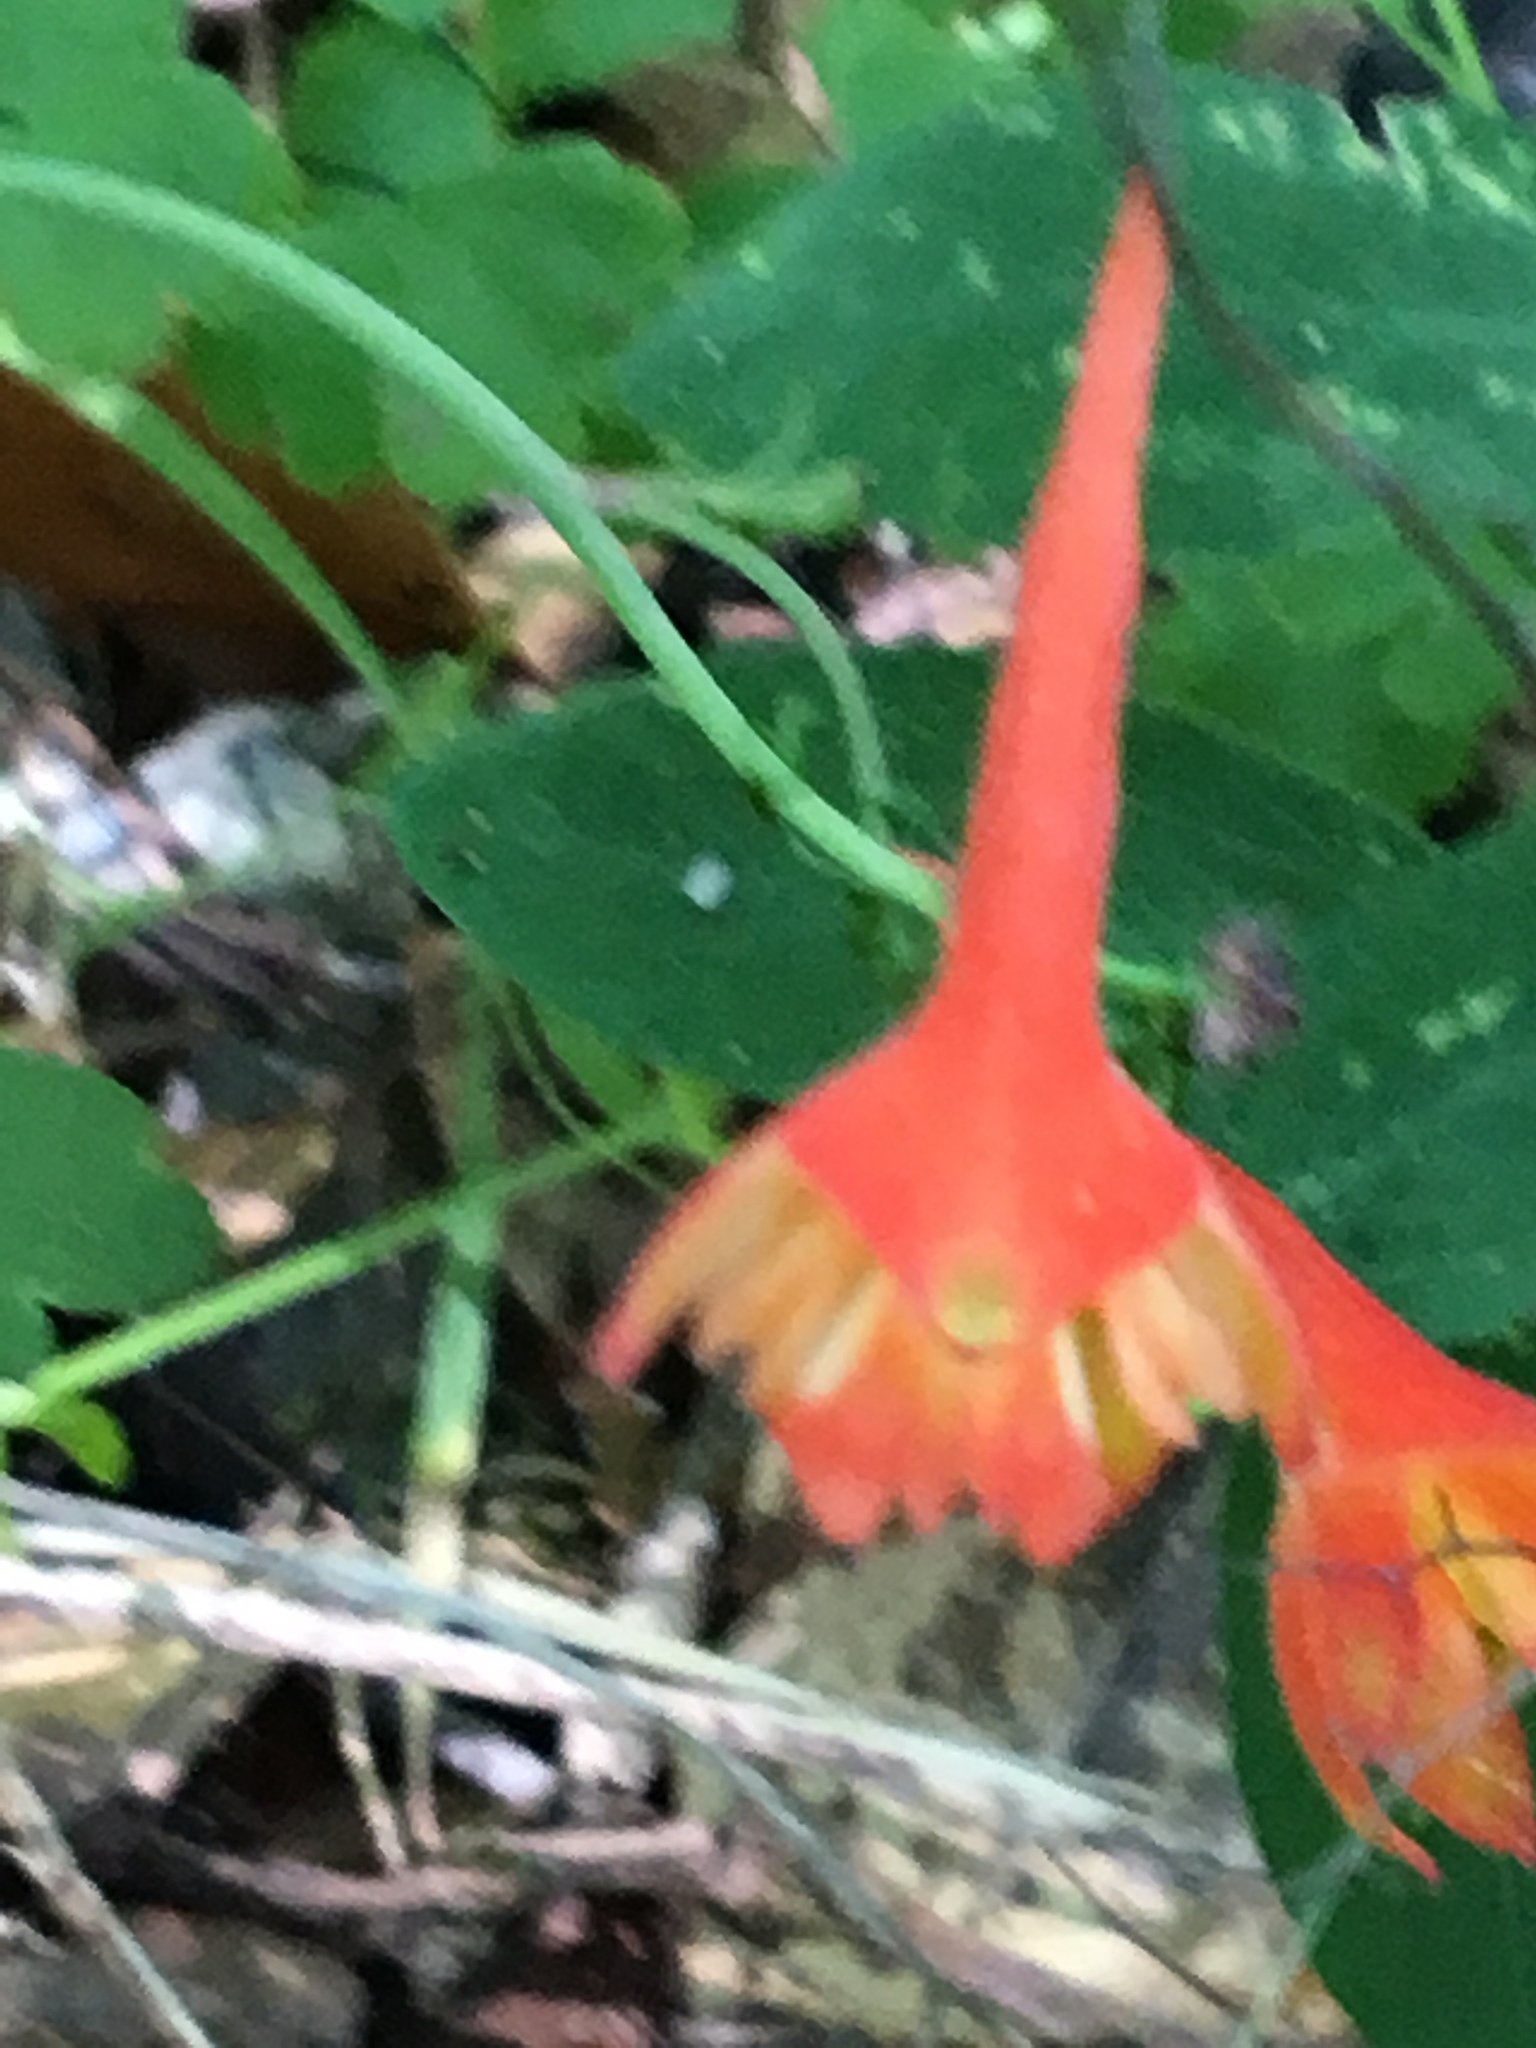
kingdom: Plantae
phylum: Tracheophyta
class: Magnoliopsida
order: Ranunculales
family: Ranunculaceae
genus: Delphinium
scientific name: Delphinium nudicaule
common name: Red larkspur
